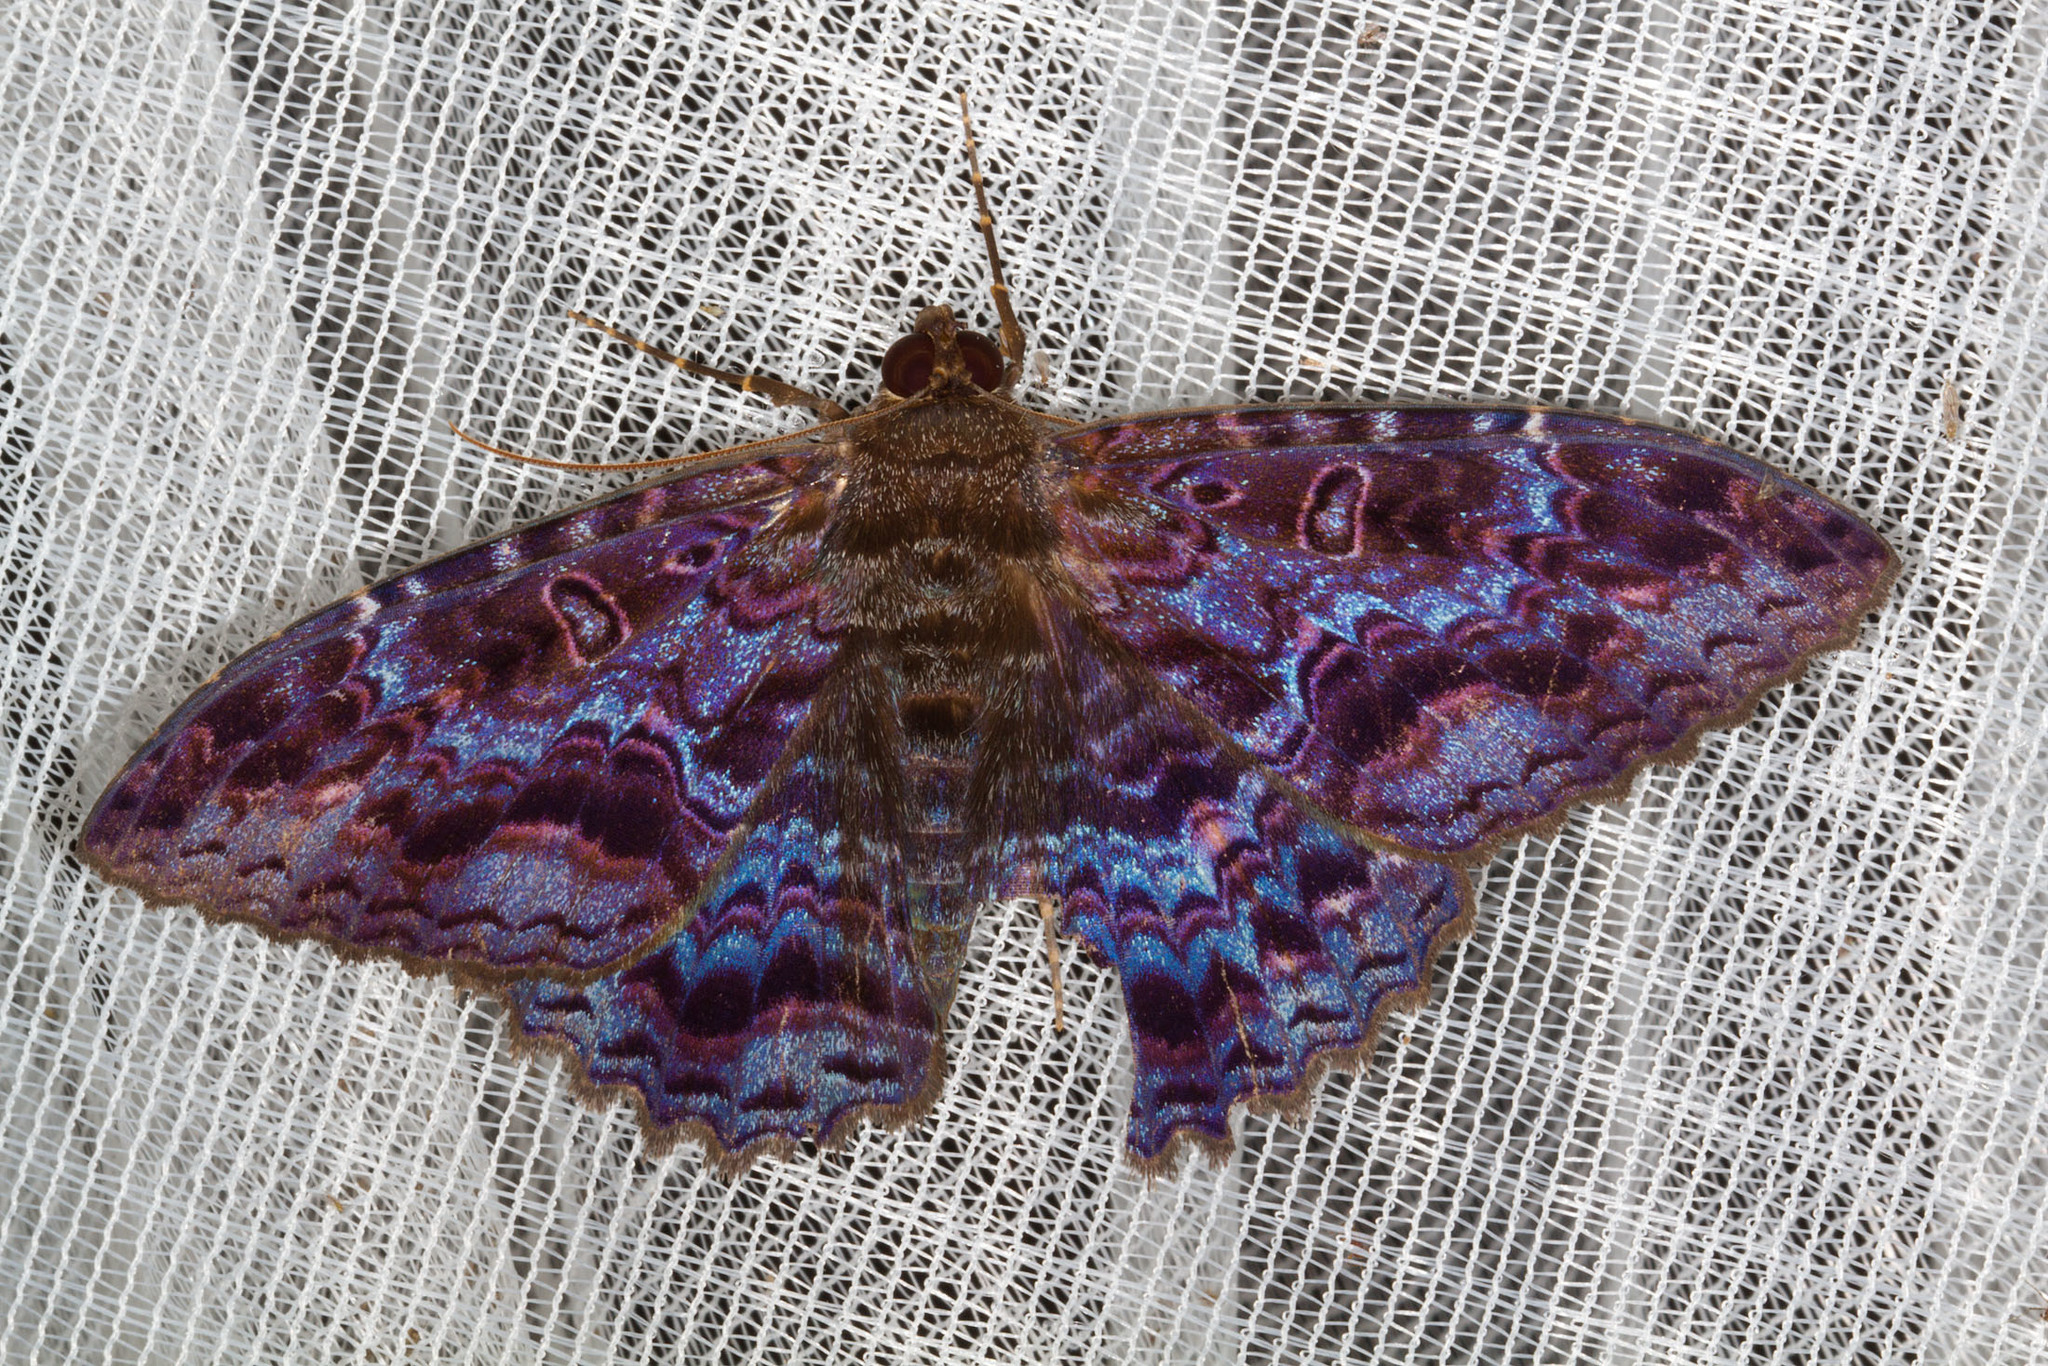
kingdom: Animalia
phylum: Arthropoda
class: Insecta
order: Lepidoptera
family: Erebidae
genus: Letis
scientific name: Letis janthinea
